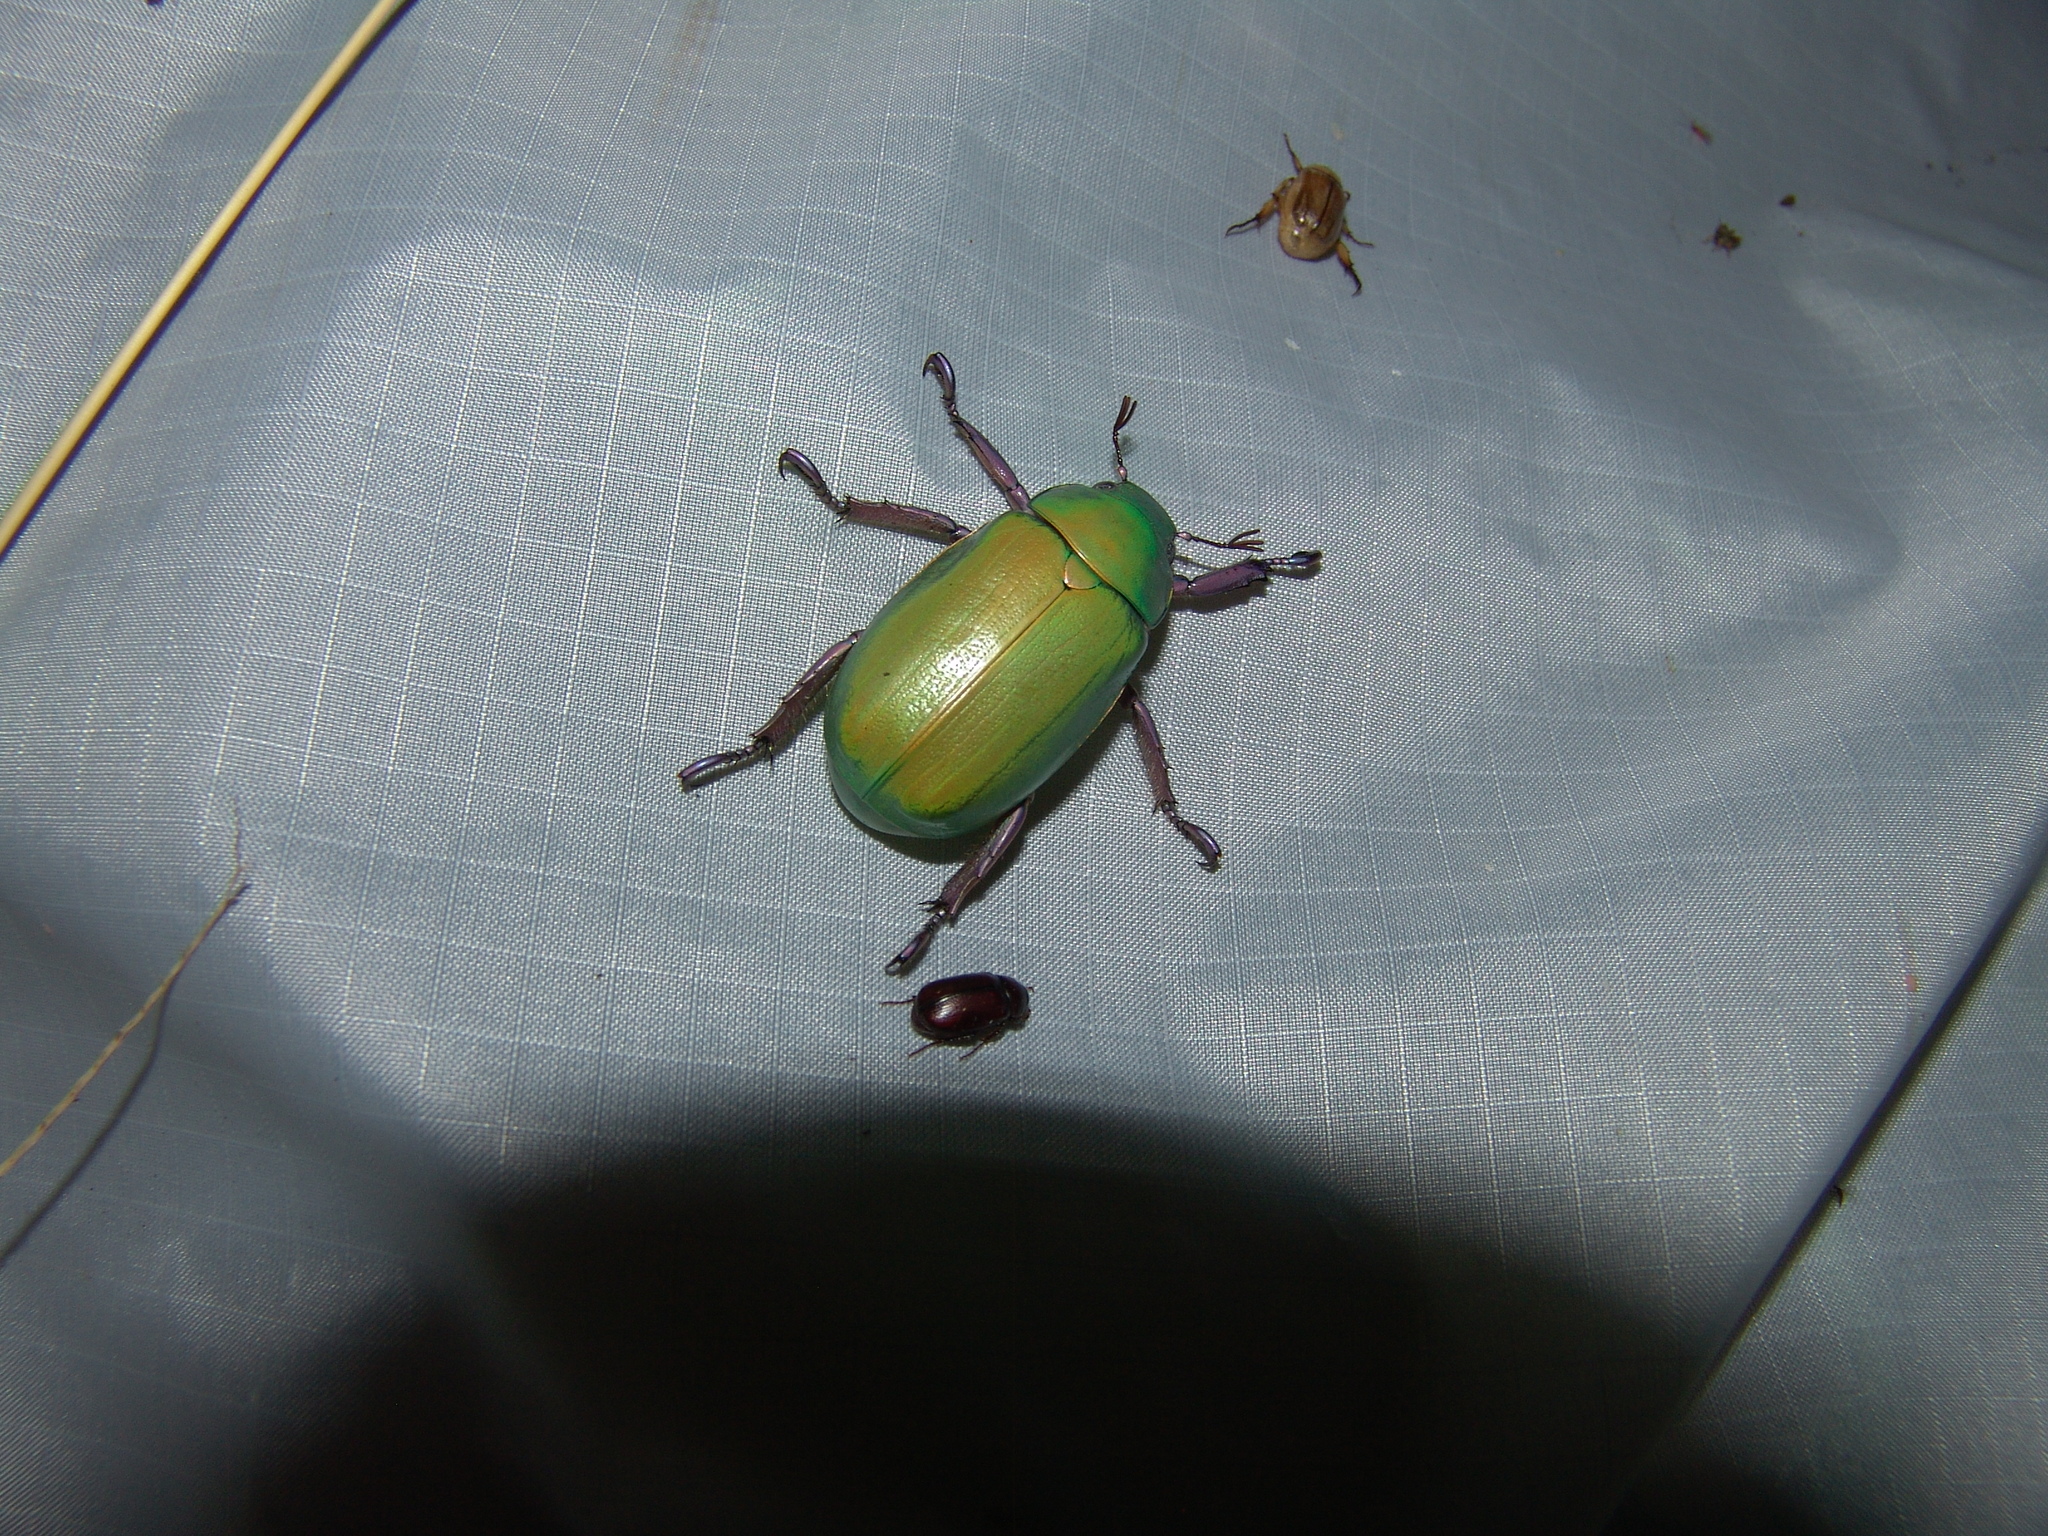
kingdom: Animalia
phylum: Arthropoda
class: Insecta
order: Coleoptera
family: Scarabaeidae
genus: Chrysina
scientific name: Chrysina beyeri
